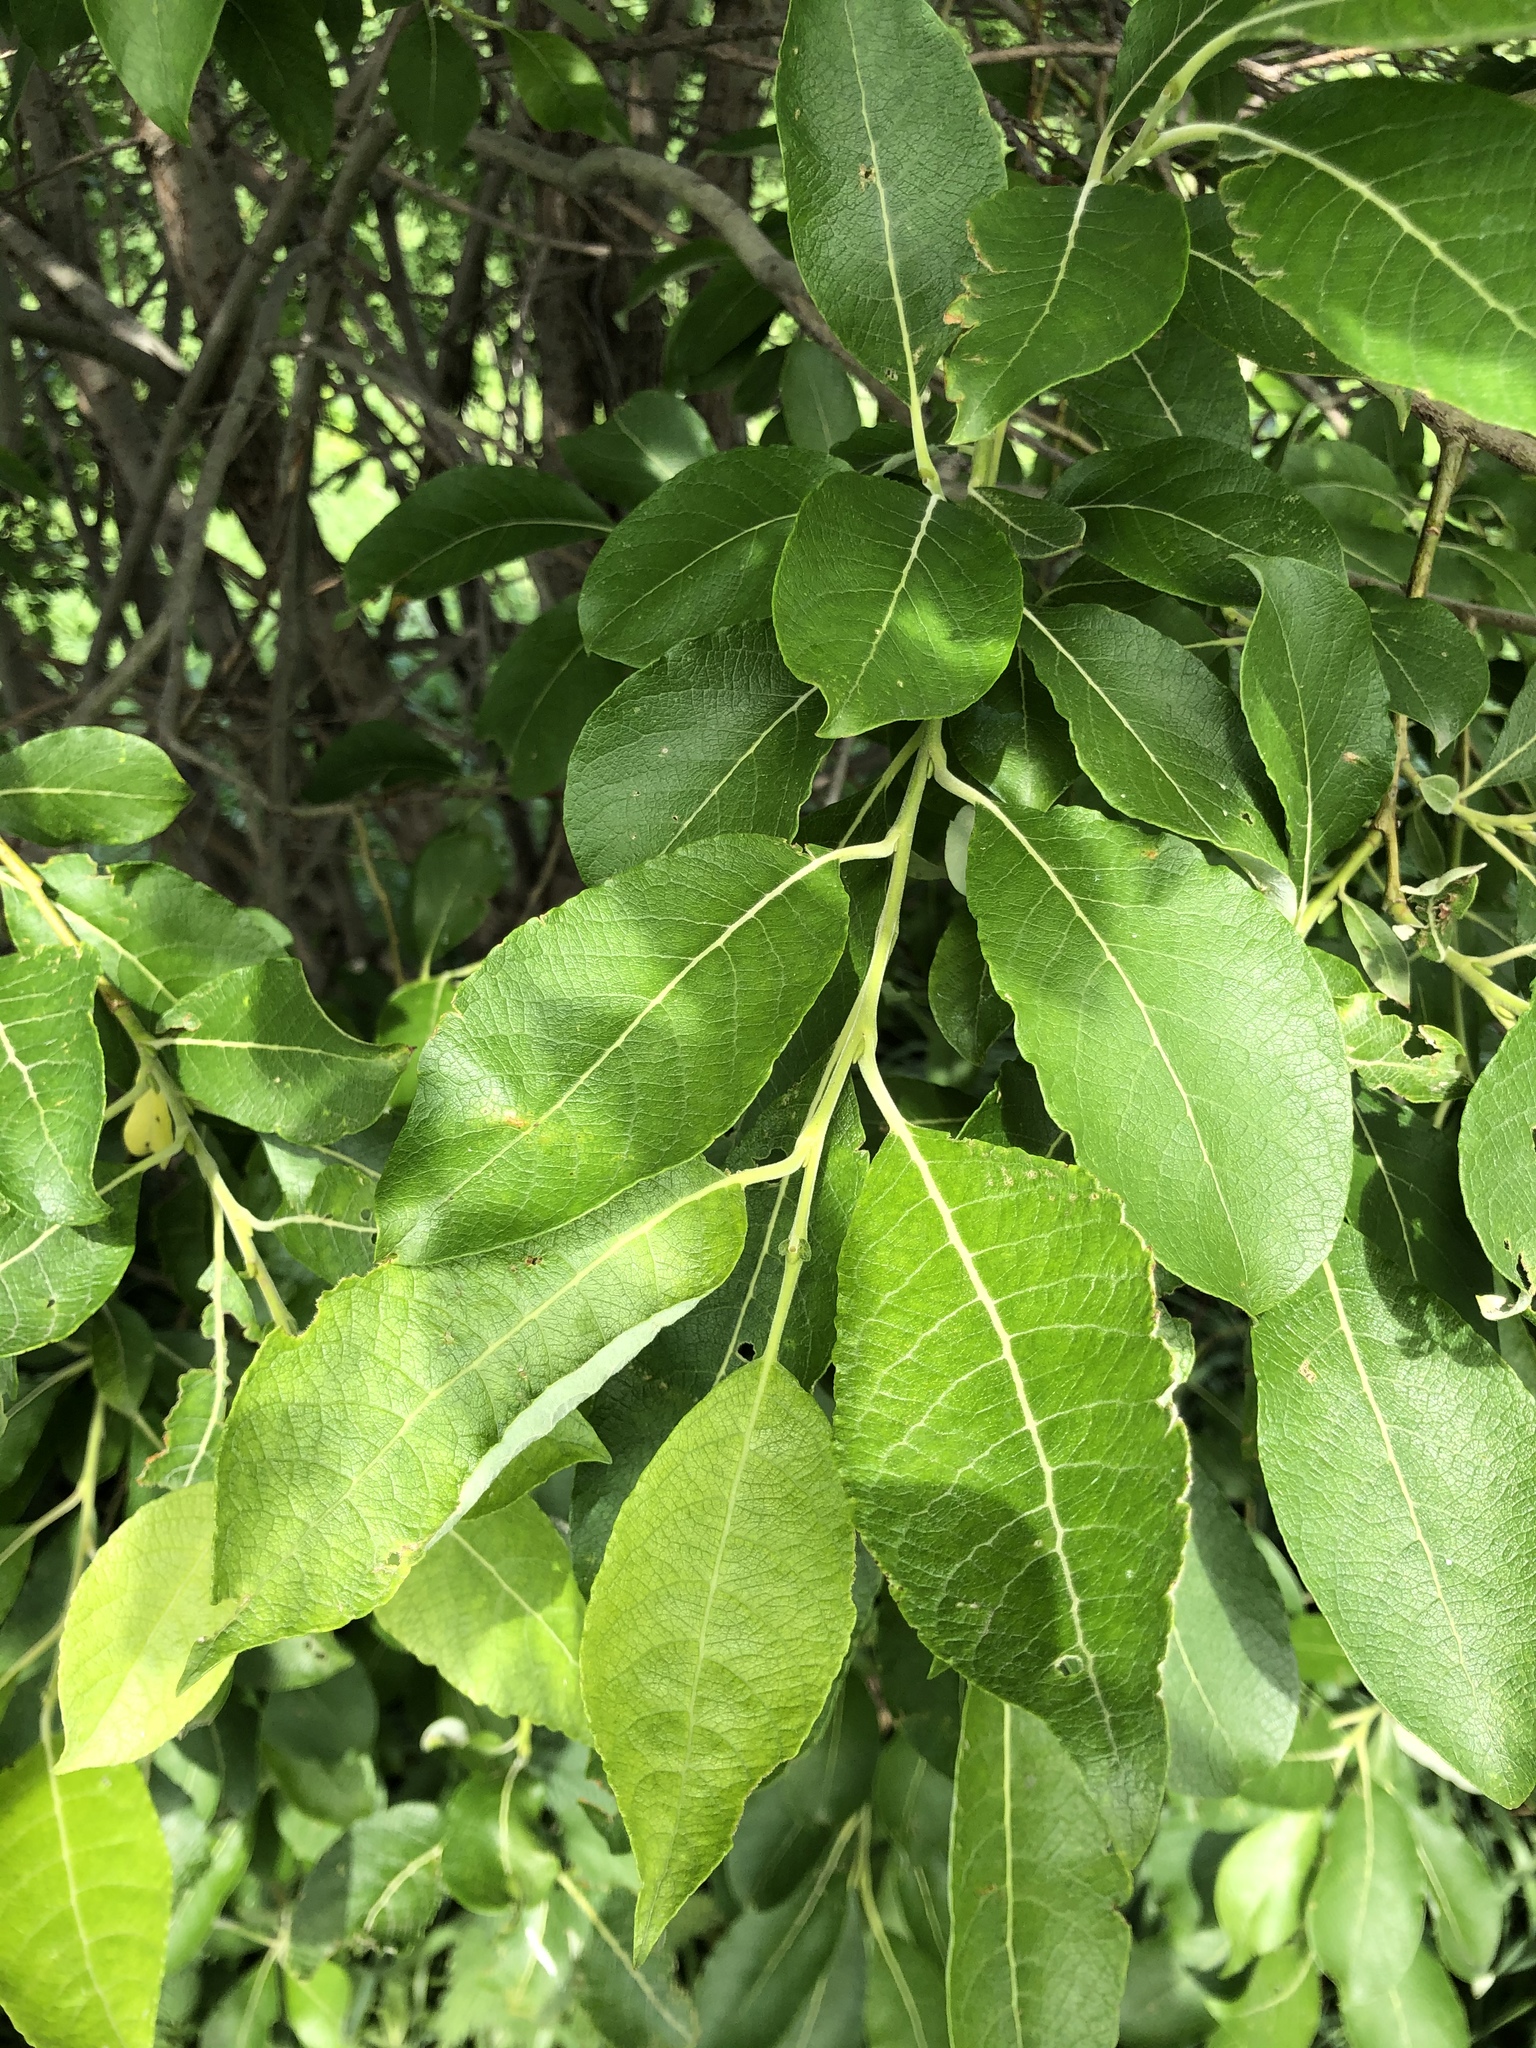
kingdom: Plantae
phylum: Tracheophyta
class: Magnoliopsida
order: Malpighiales
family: Salicaceae
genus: Salix
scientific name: Salix caprea
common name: Goat willow
